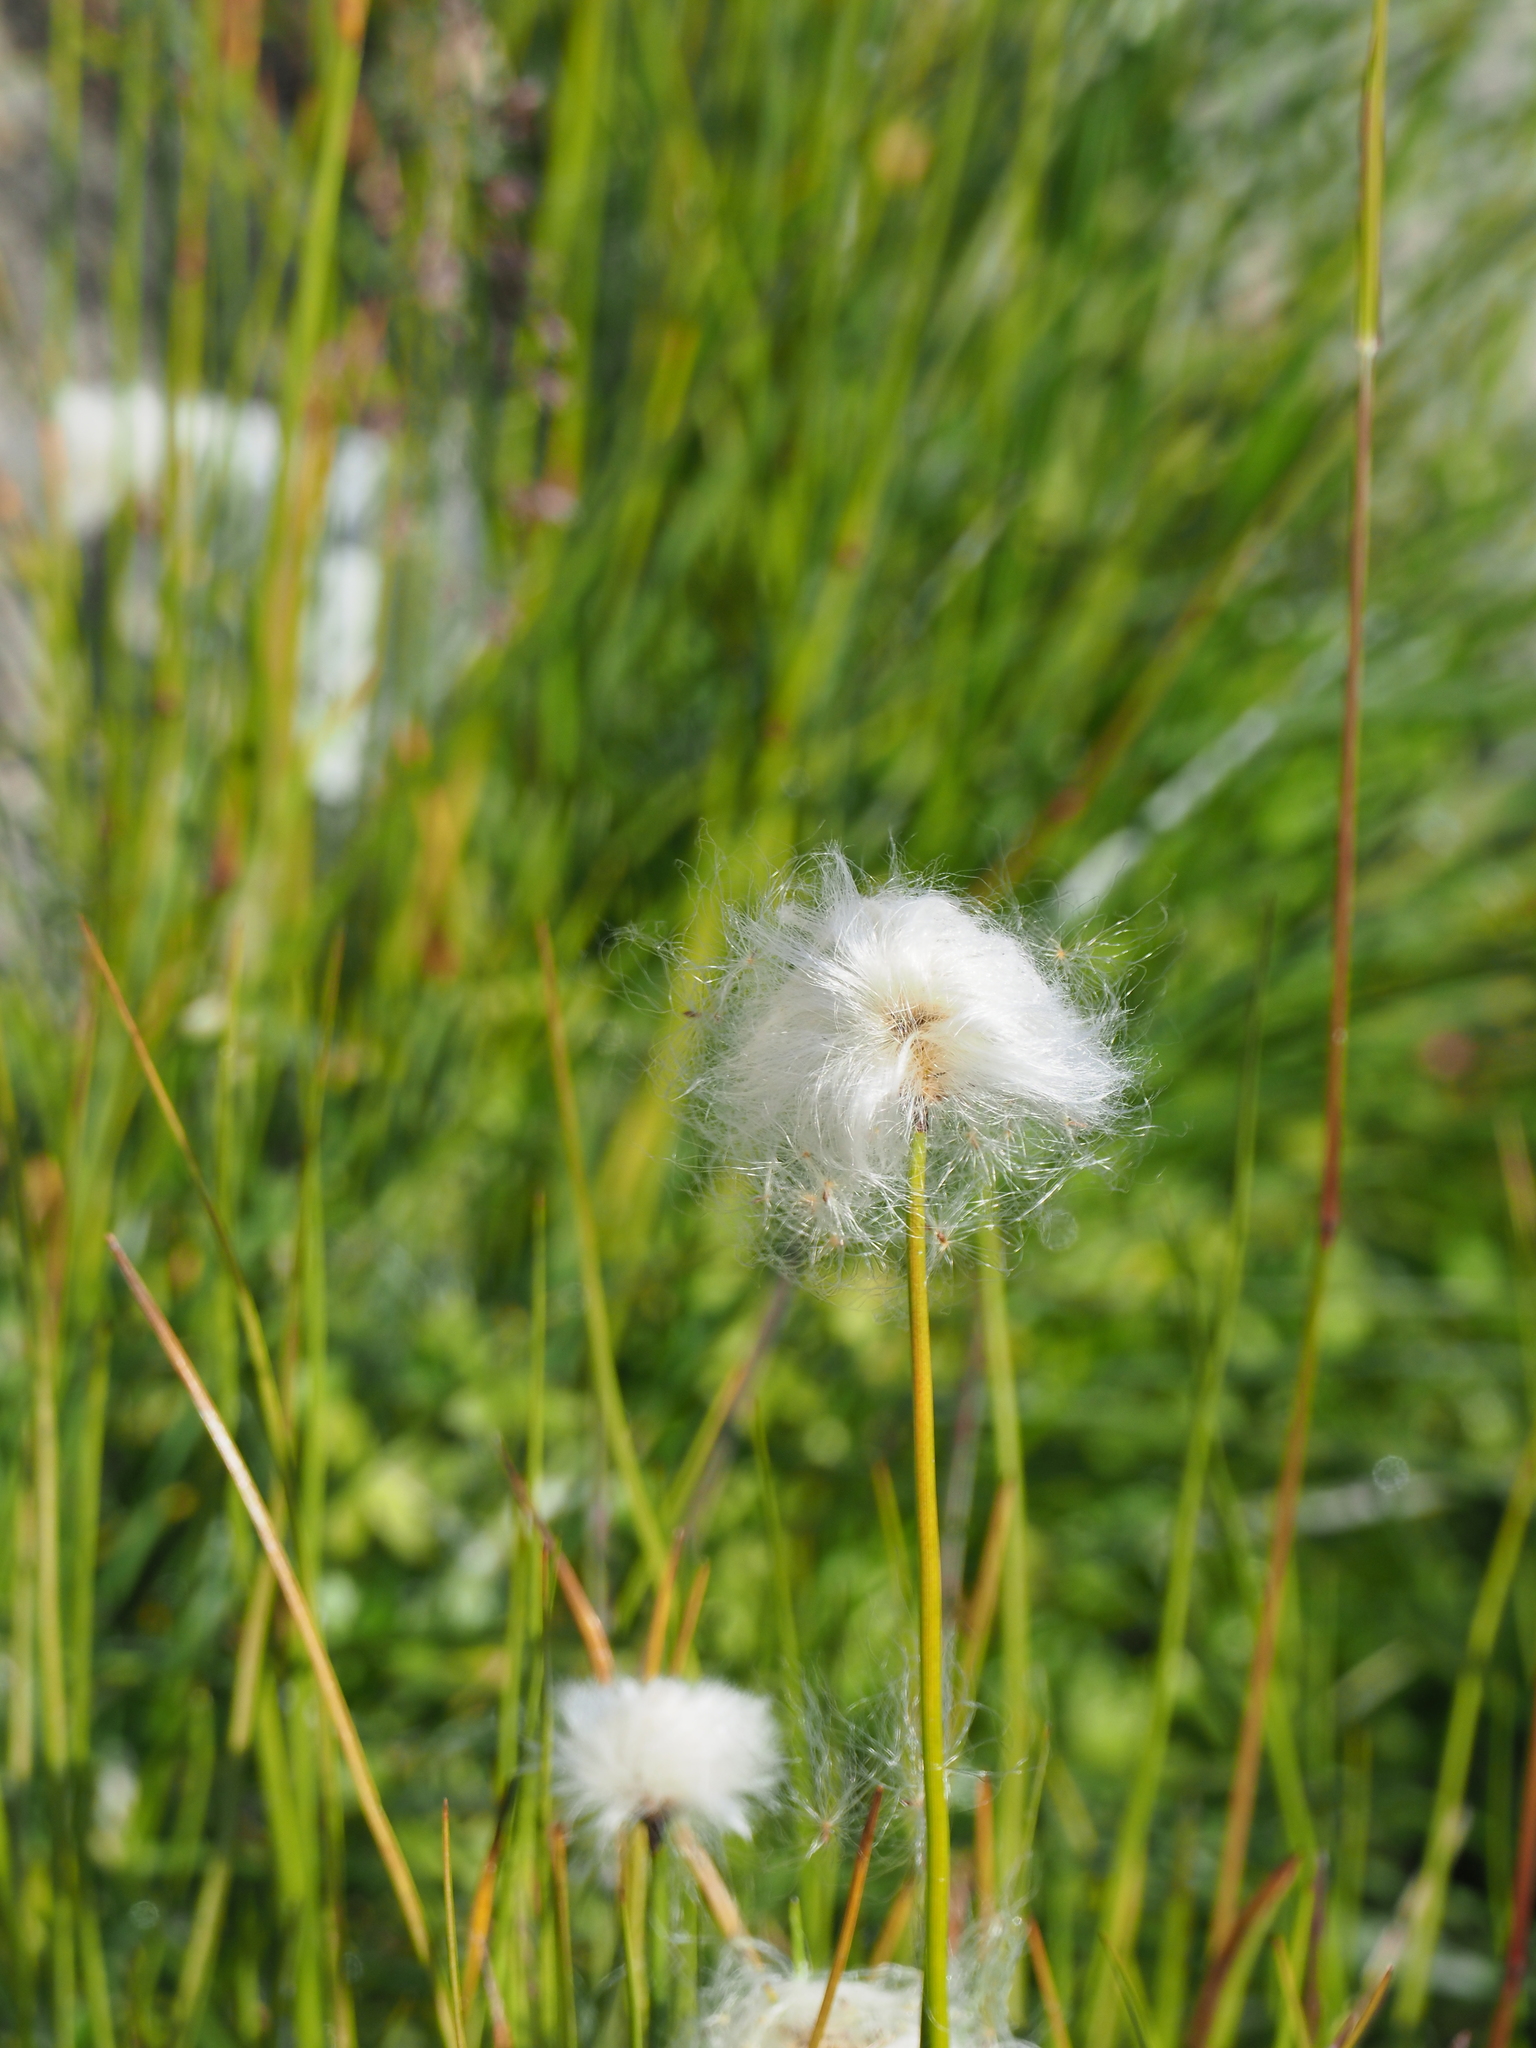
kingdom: Plantae
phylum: Tracheophyta
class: Liliopsida
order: Poales
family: Cyperaceae
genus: Eriophorum
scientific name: Eriophorum scheuchzeri
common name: Scheuchzer's cottongrass
